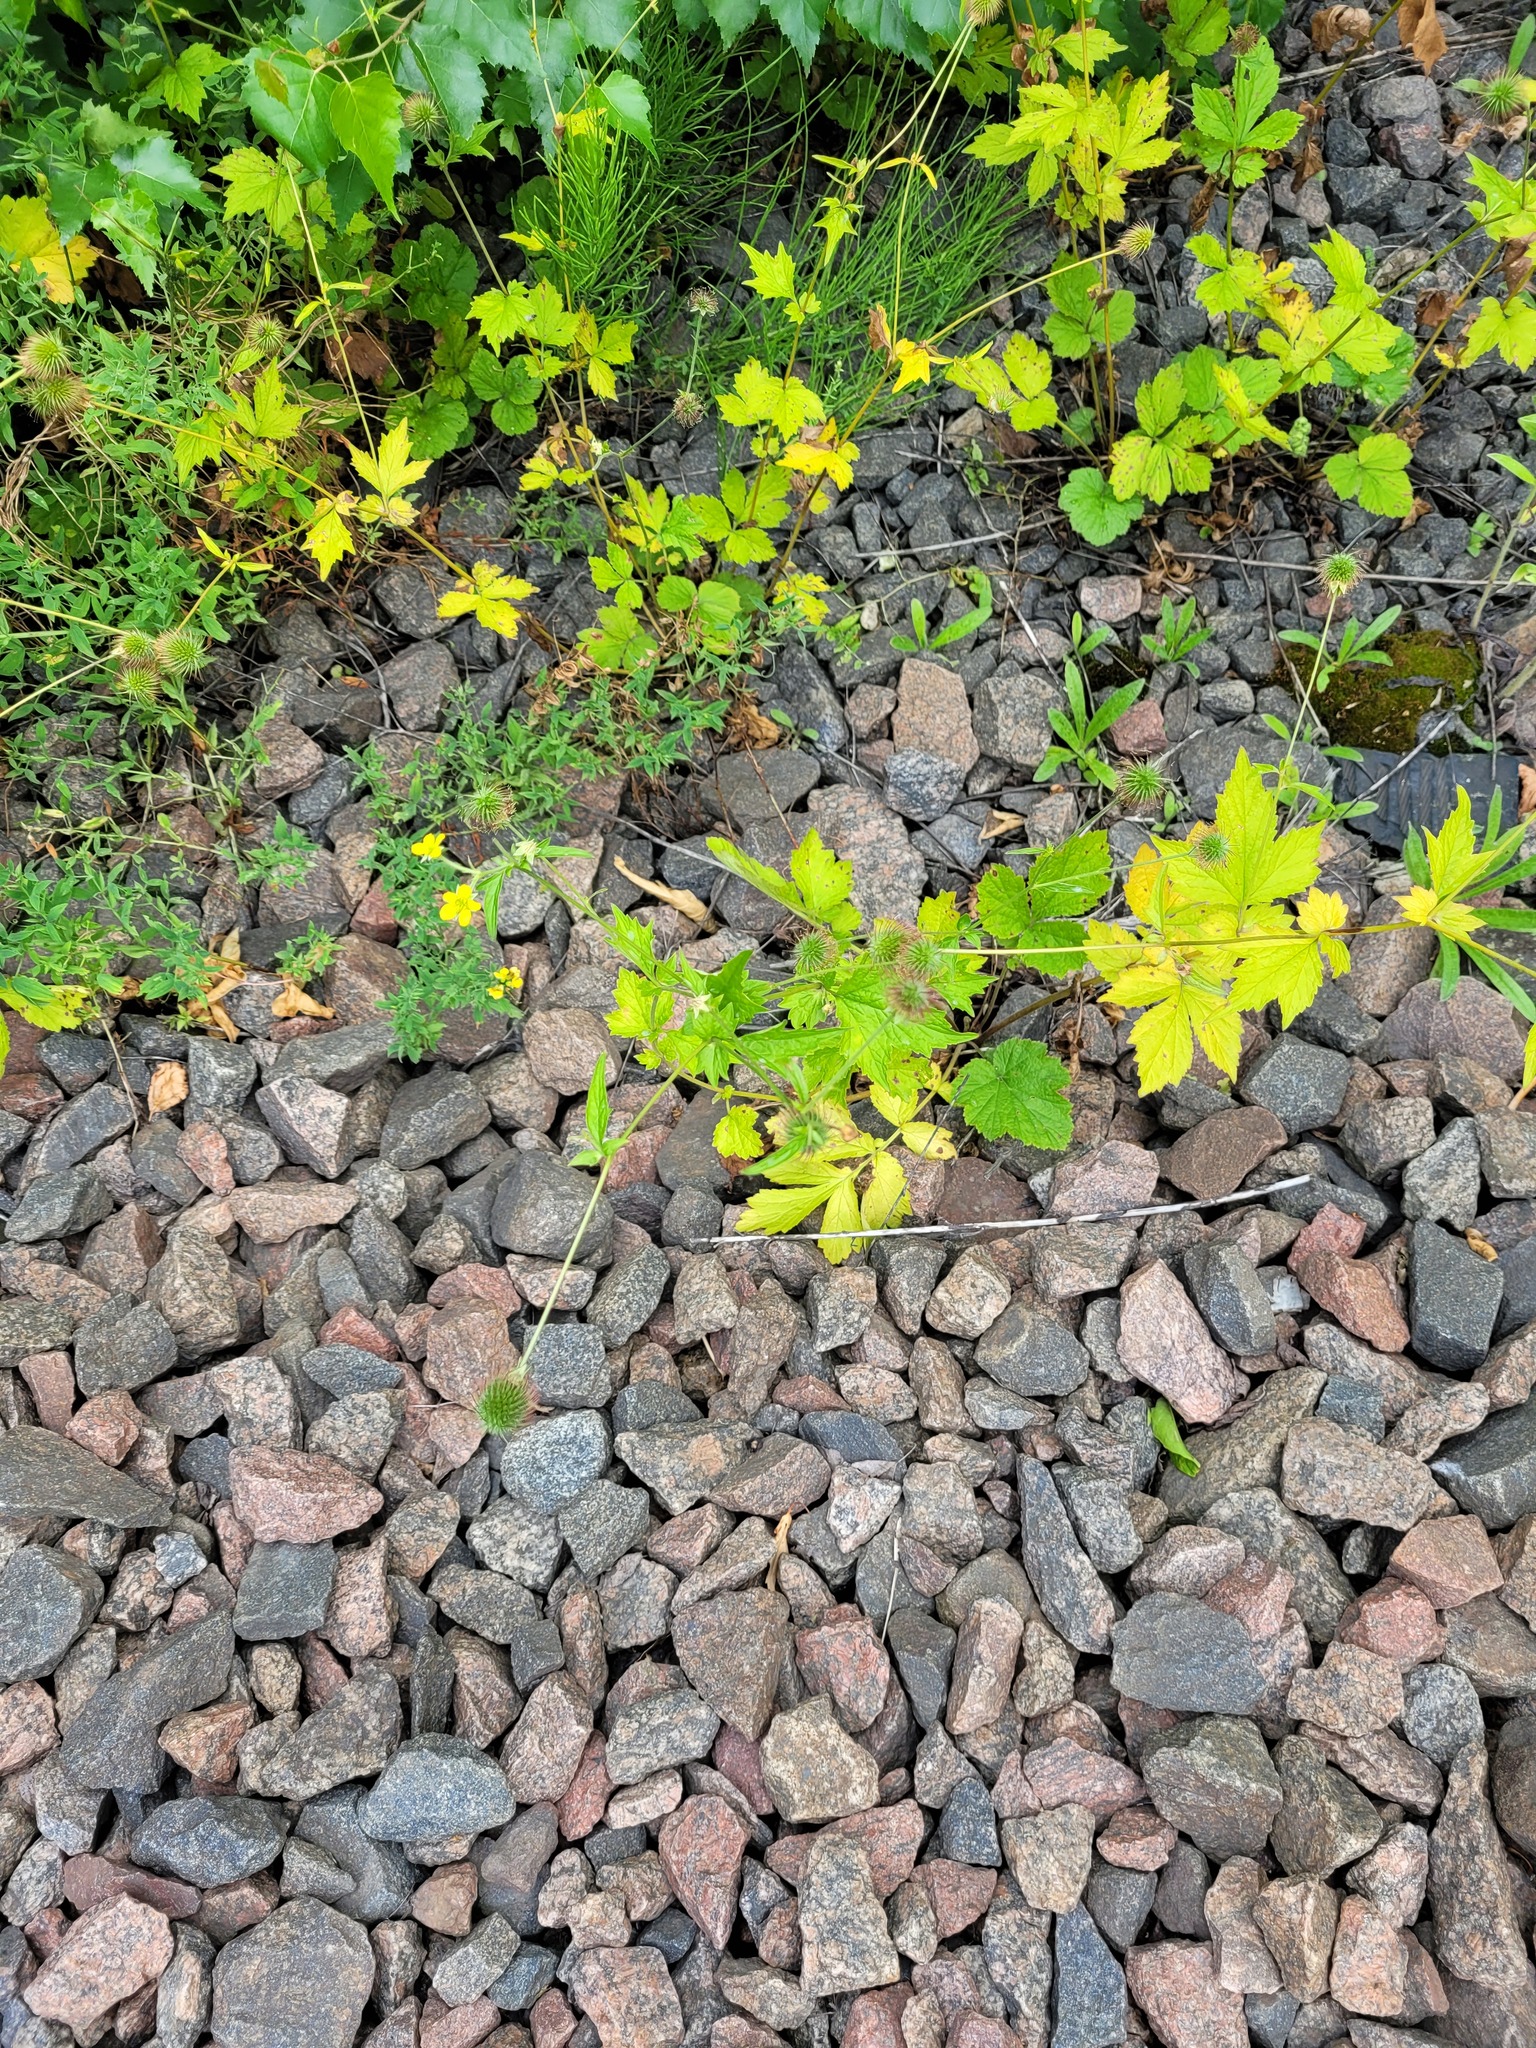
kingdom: Plantae
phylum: Tracheophyta
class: Magnoliopsida
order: Rosales
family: Rosaceae
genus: Geum
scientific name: Geum urbanum
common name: Wood avens
